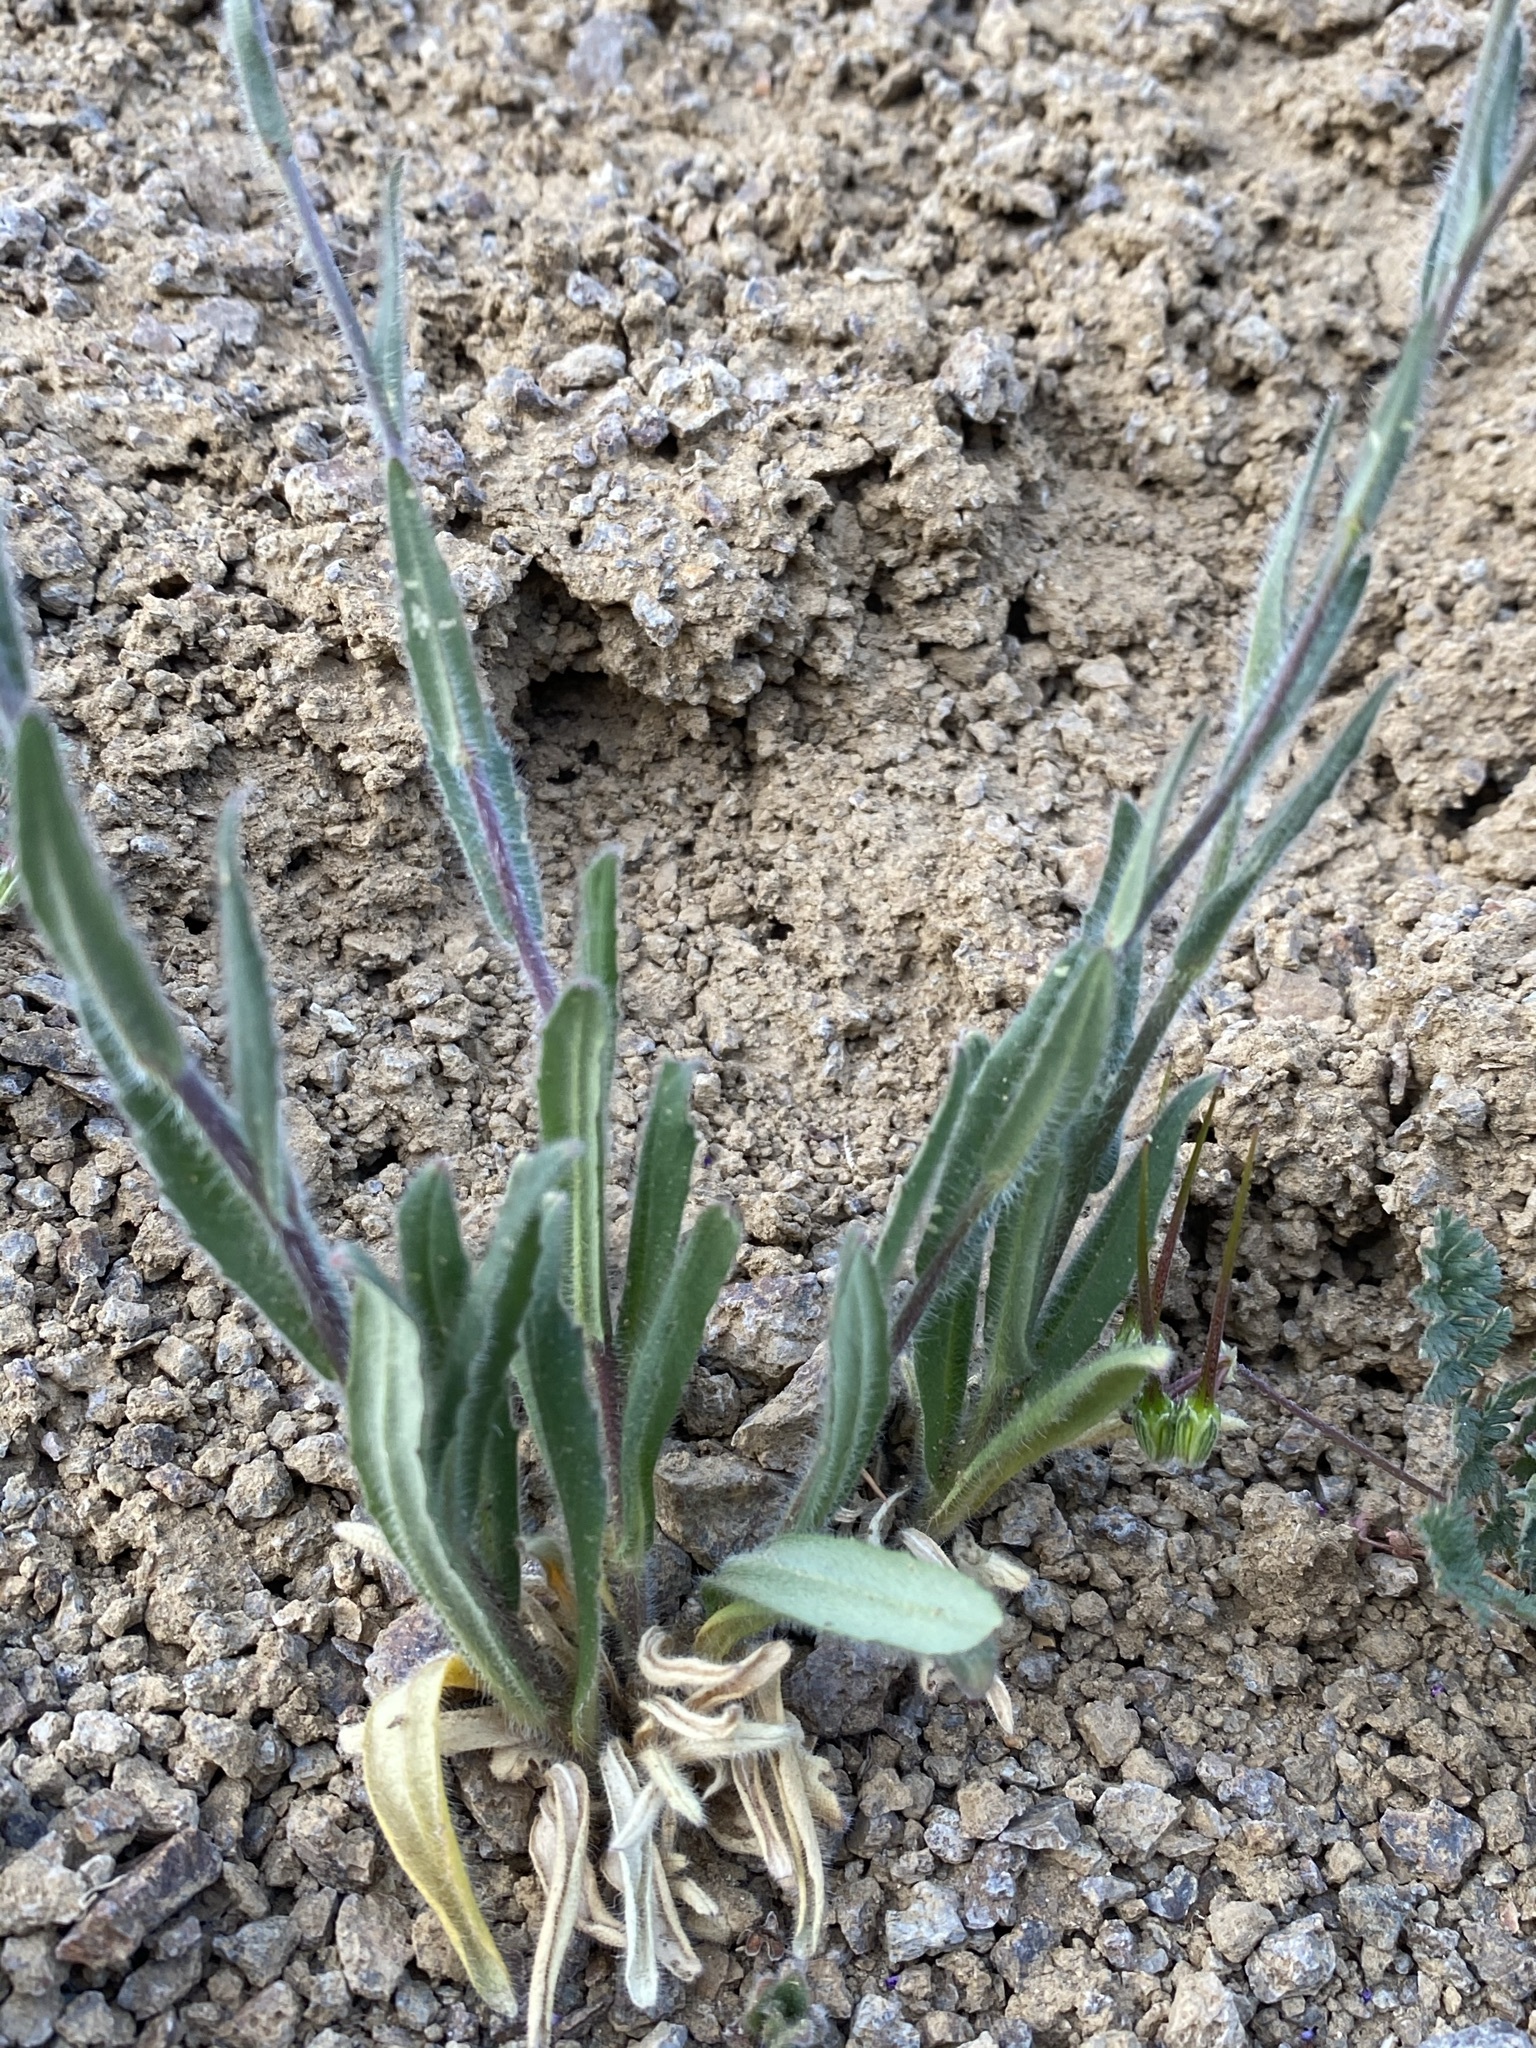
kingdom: Plantae
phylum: Tracheophyta
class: Magnoliopsida
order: Brassicales
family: Brassicaceae
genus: Camelina
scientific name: Camelina rumelica
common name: Graceful false flax
